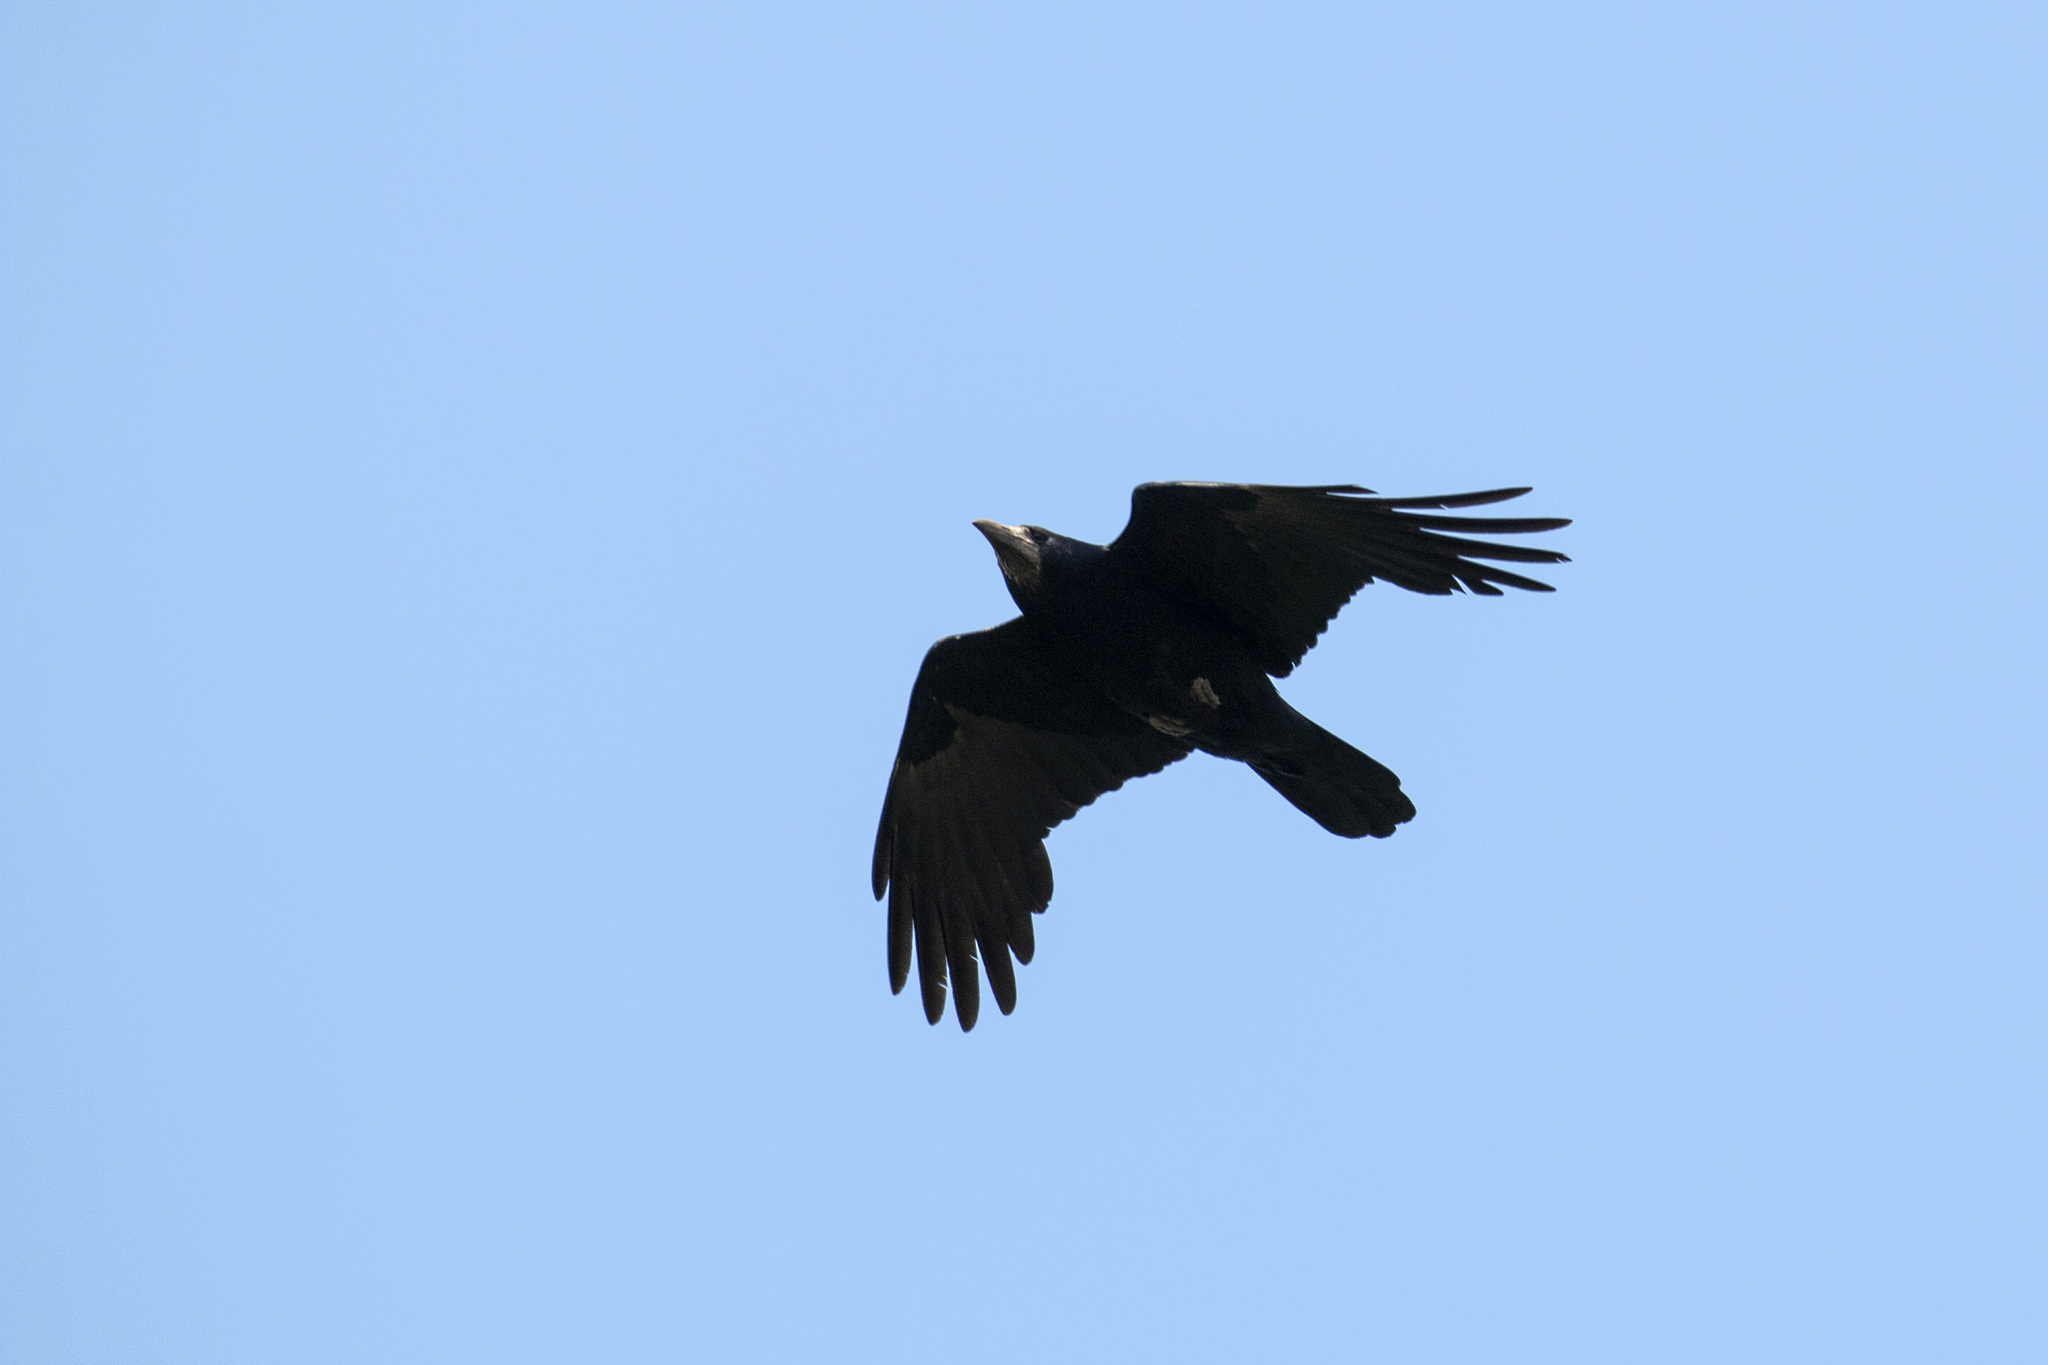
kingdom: Animalia
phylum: Chordata
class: Aves
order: Passeriformes
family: Corvidae
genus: Corvus
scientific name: Corvus frugilegus
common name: Rook
